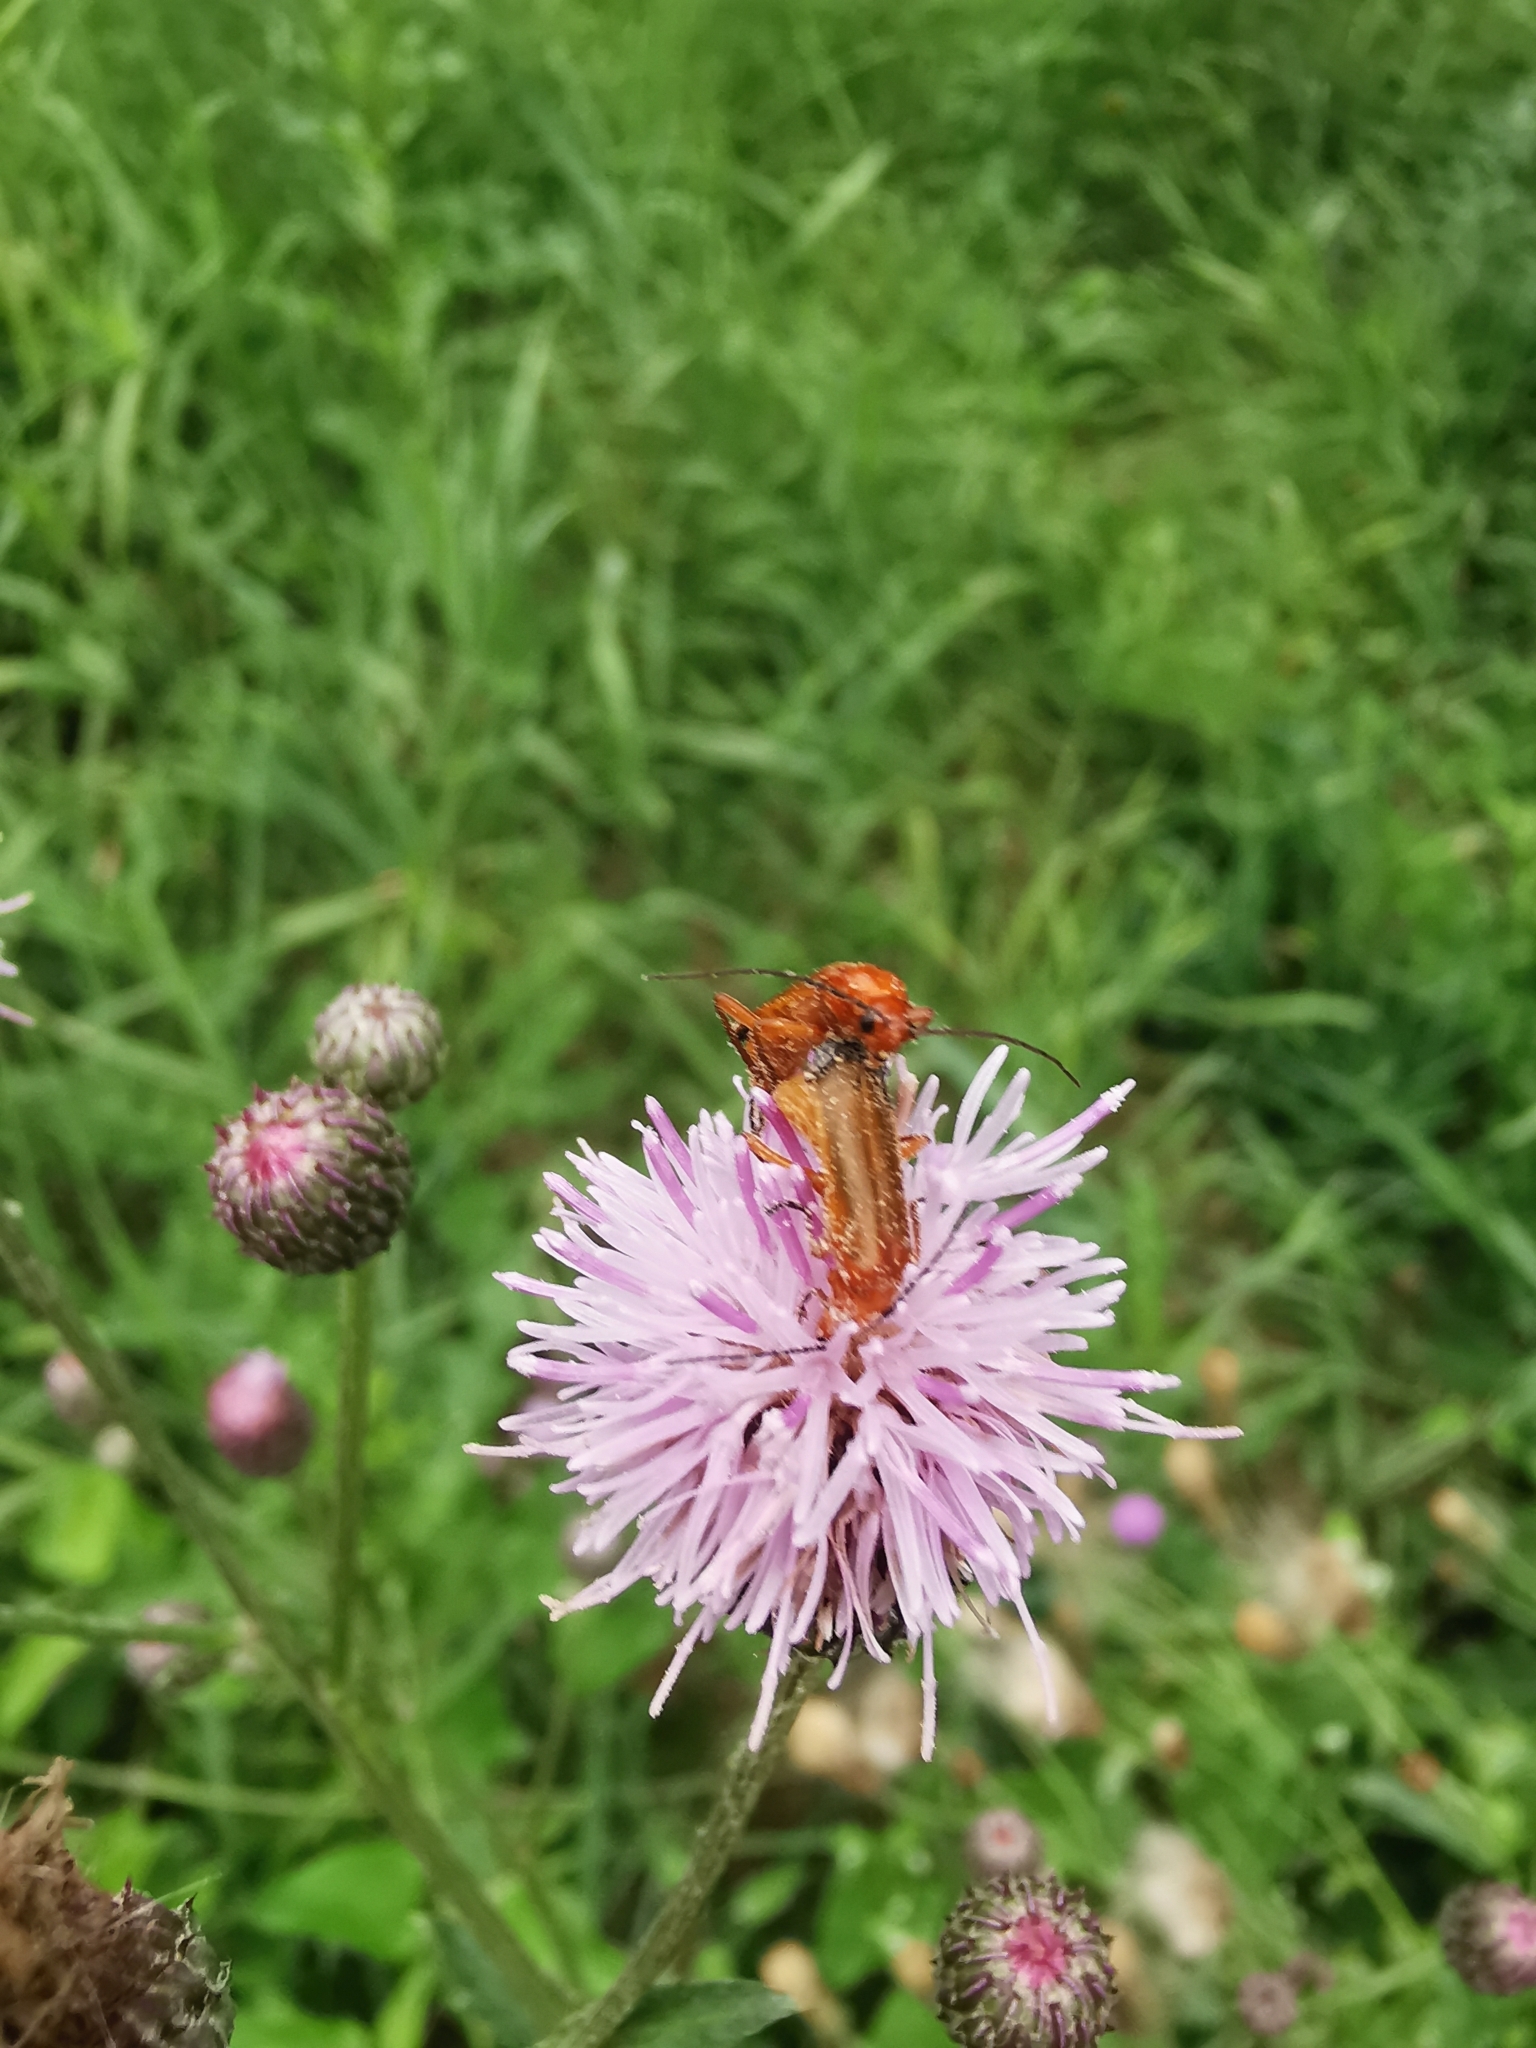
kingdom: Animalia
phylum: Arthropoda
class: Insecta
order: Coleoptera
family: Cantharidae
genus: Rhagonycha
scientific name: Rhagonycha fulva
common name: Common red soldier beetle
